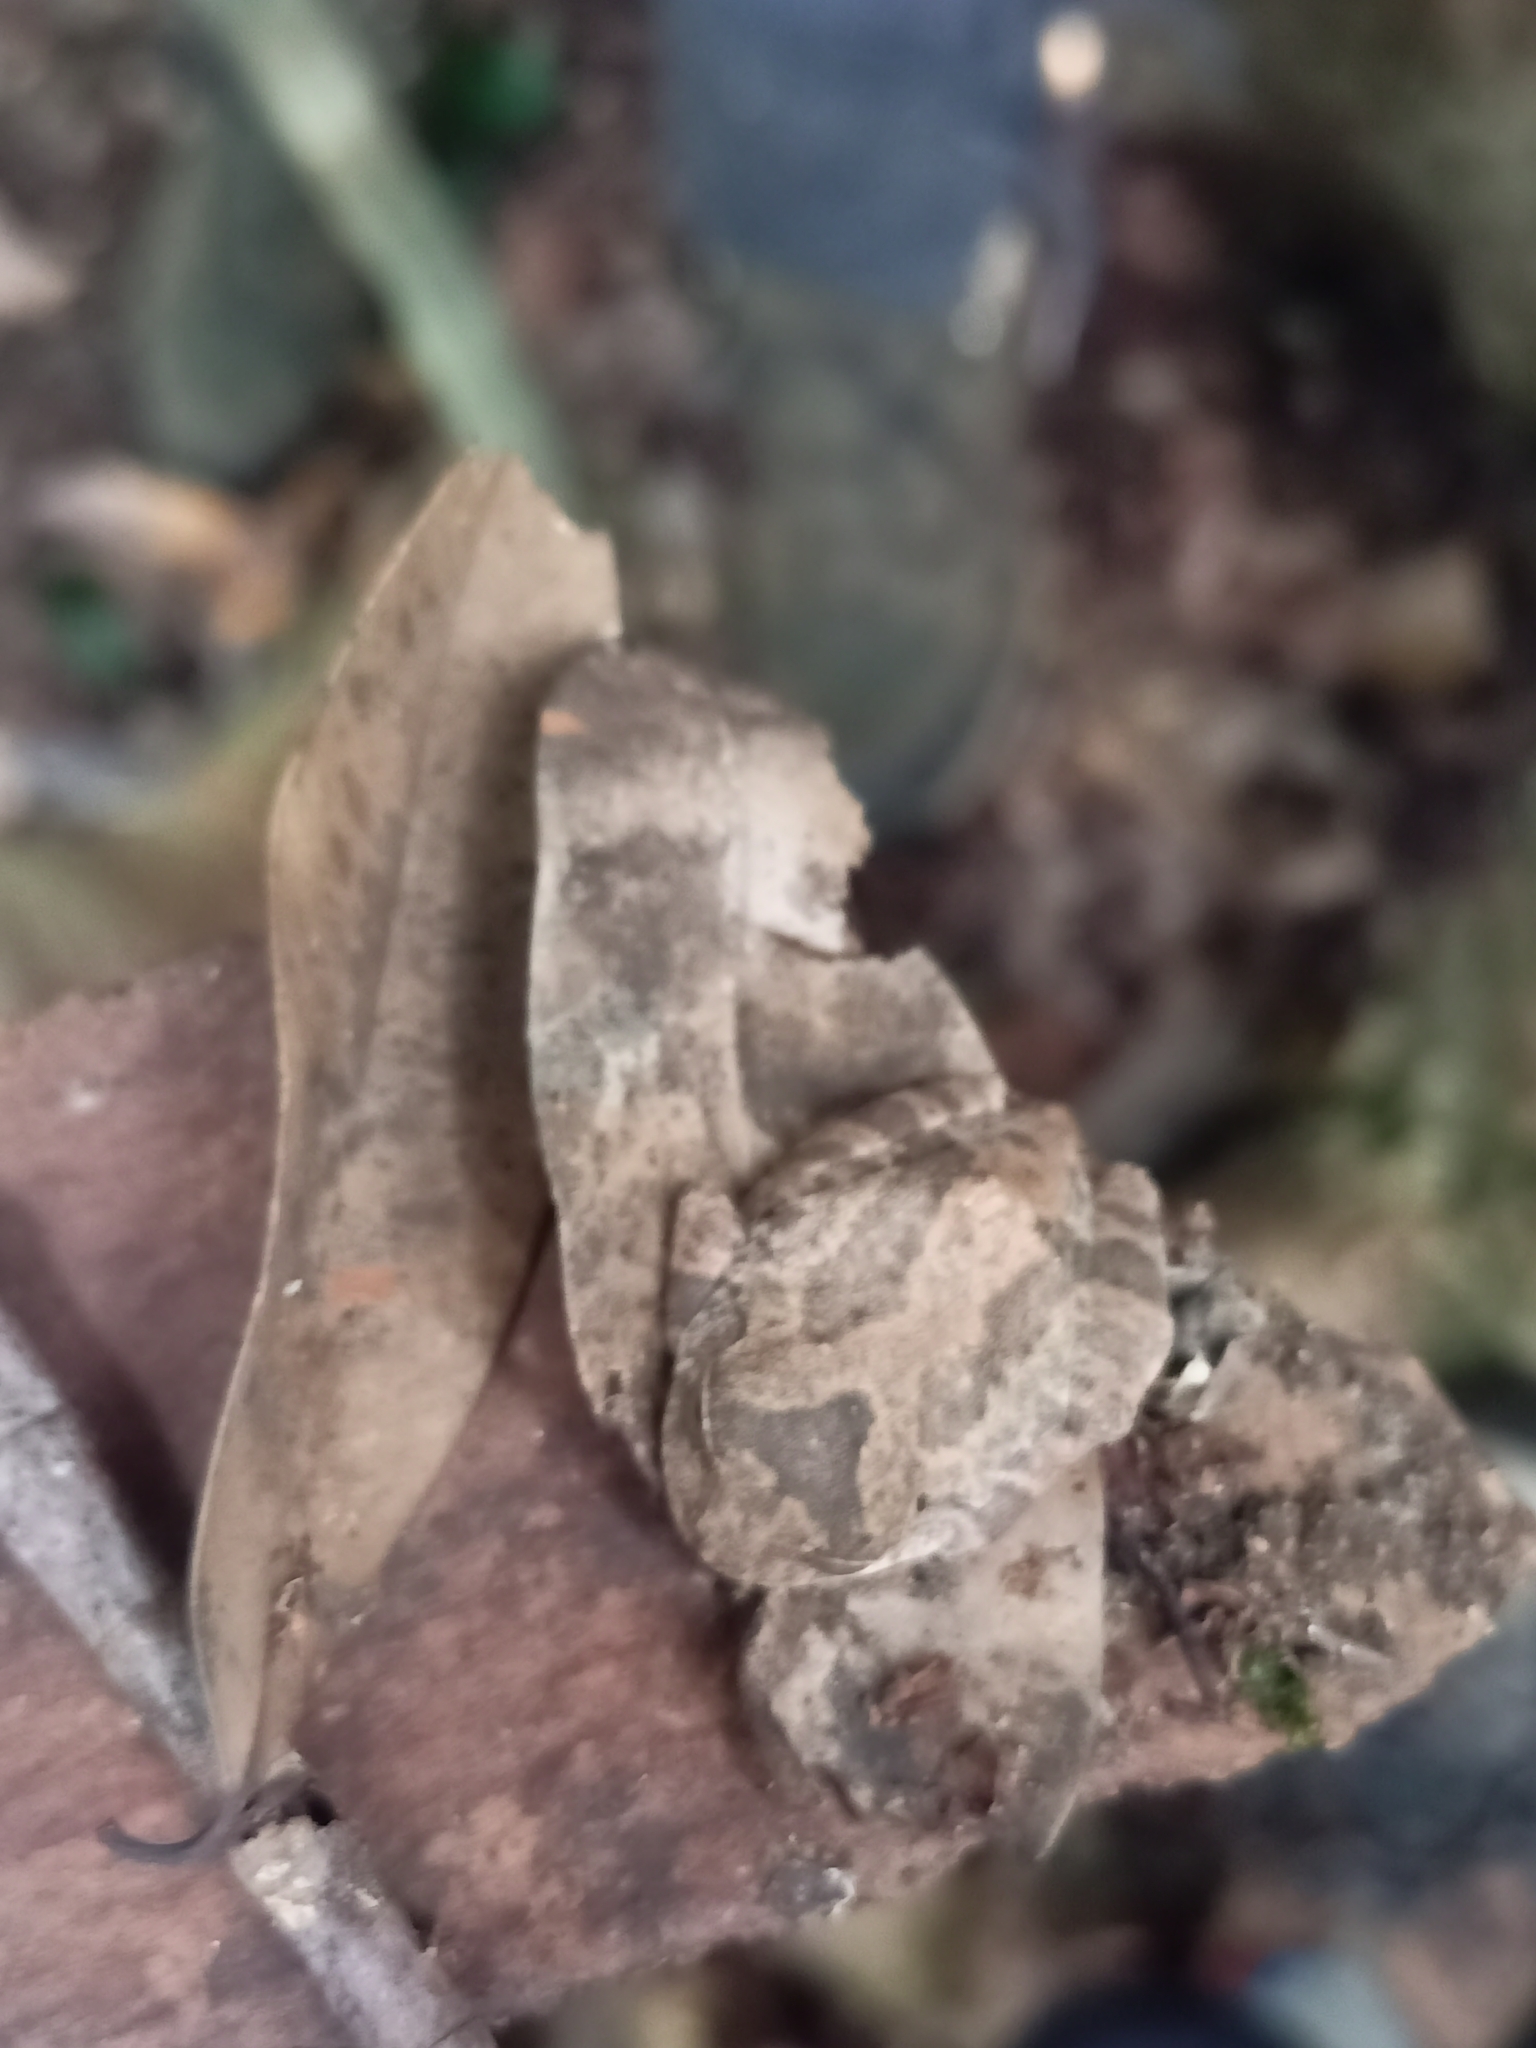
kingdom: Animalia
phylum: Chordata
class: Amphibia
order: Anura
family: Rhacophoridae
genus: Raorchestes
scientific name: Raorchestes hassanensis
